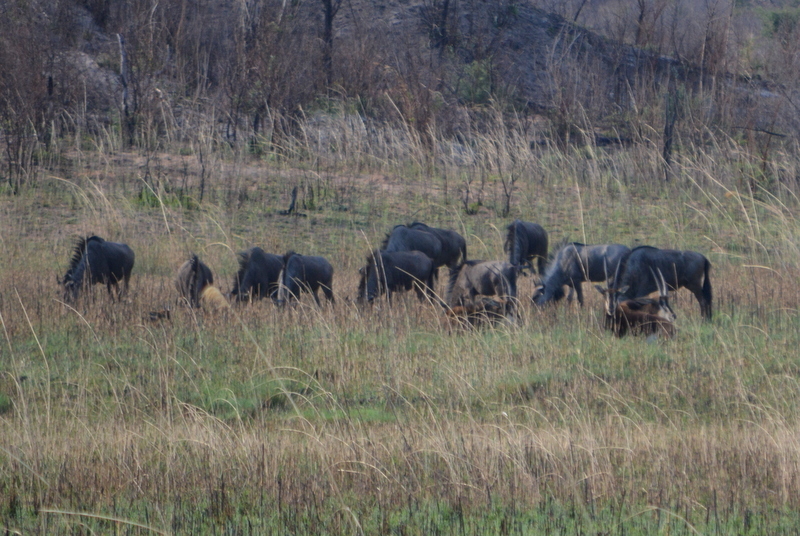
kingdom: Animalia
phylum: Chordata
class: Mammalia
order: Artiodactyla
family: Bovidae
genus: Connochaetes
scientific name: Connochaetes taurinus
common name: Blue wildebeest
